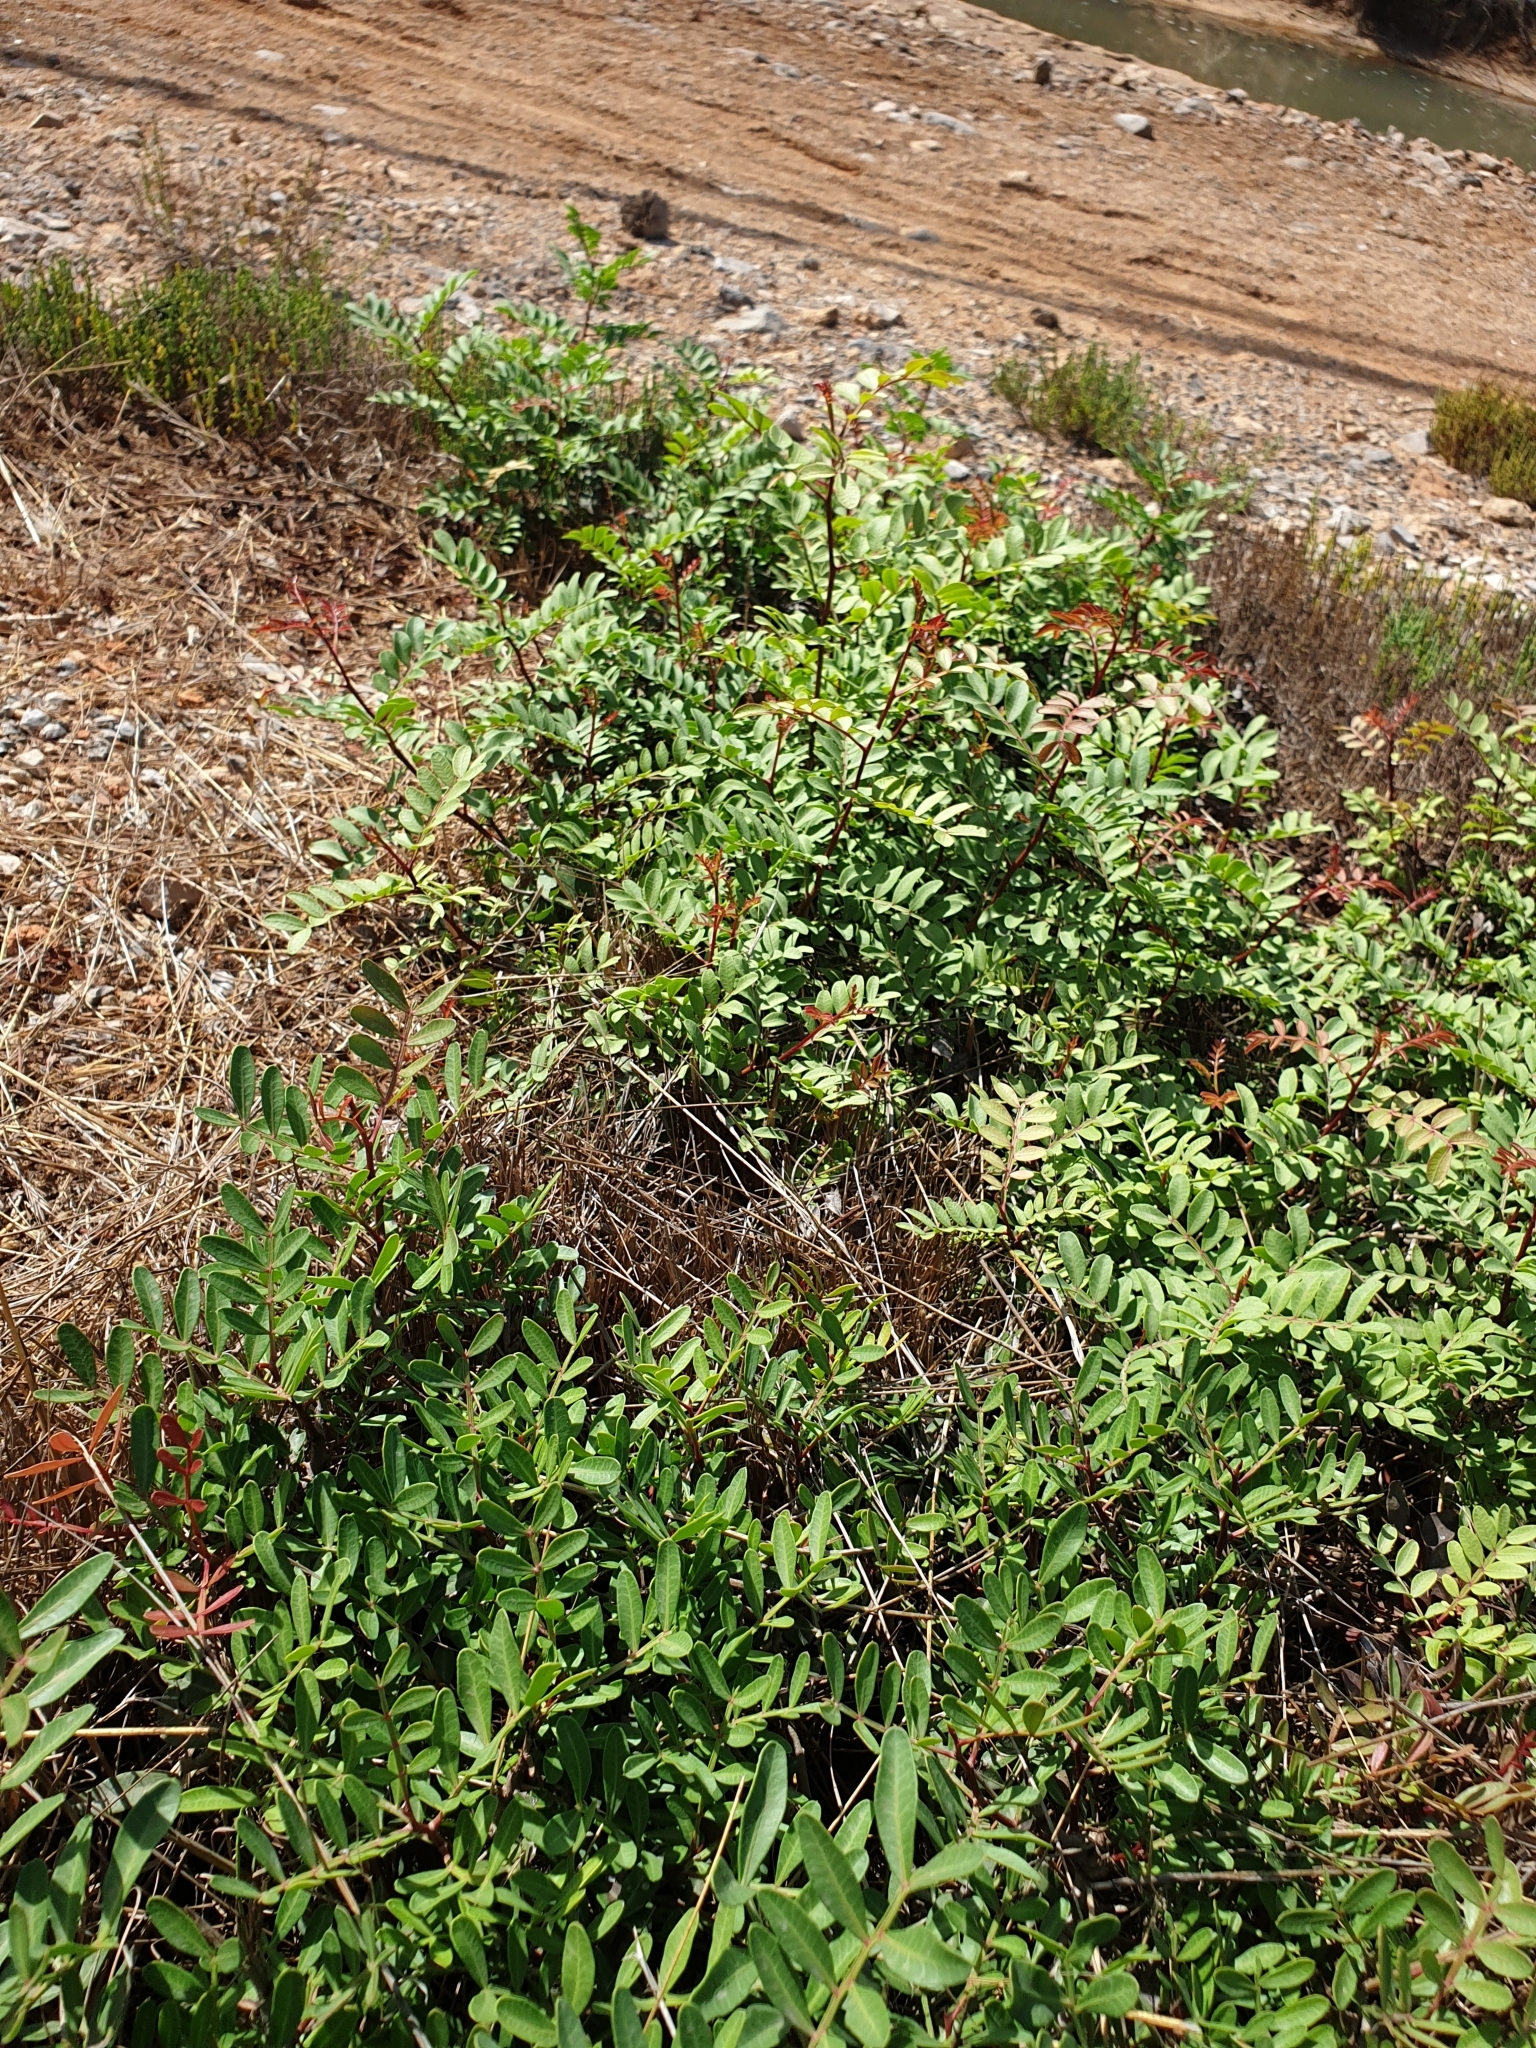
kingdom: Plantae
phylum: Tracheophyta
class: Magnoliopsida
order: Sapindales
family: Anacardiaceae
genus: Pistacia
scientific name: Pistacia lentiscus
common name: Lentisk
